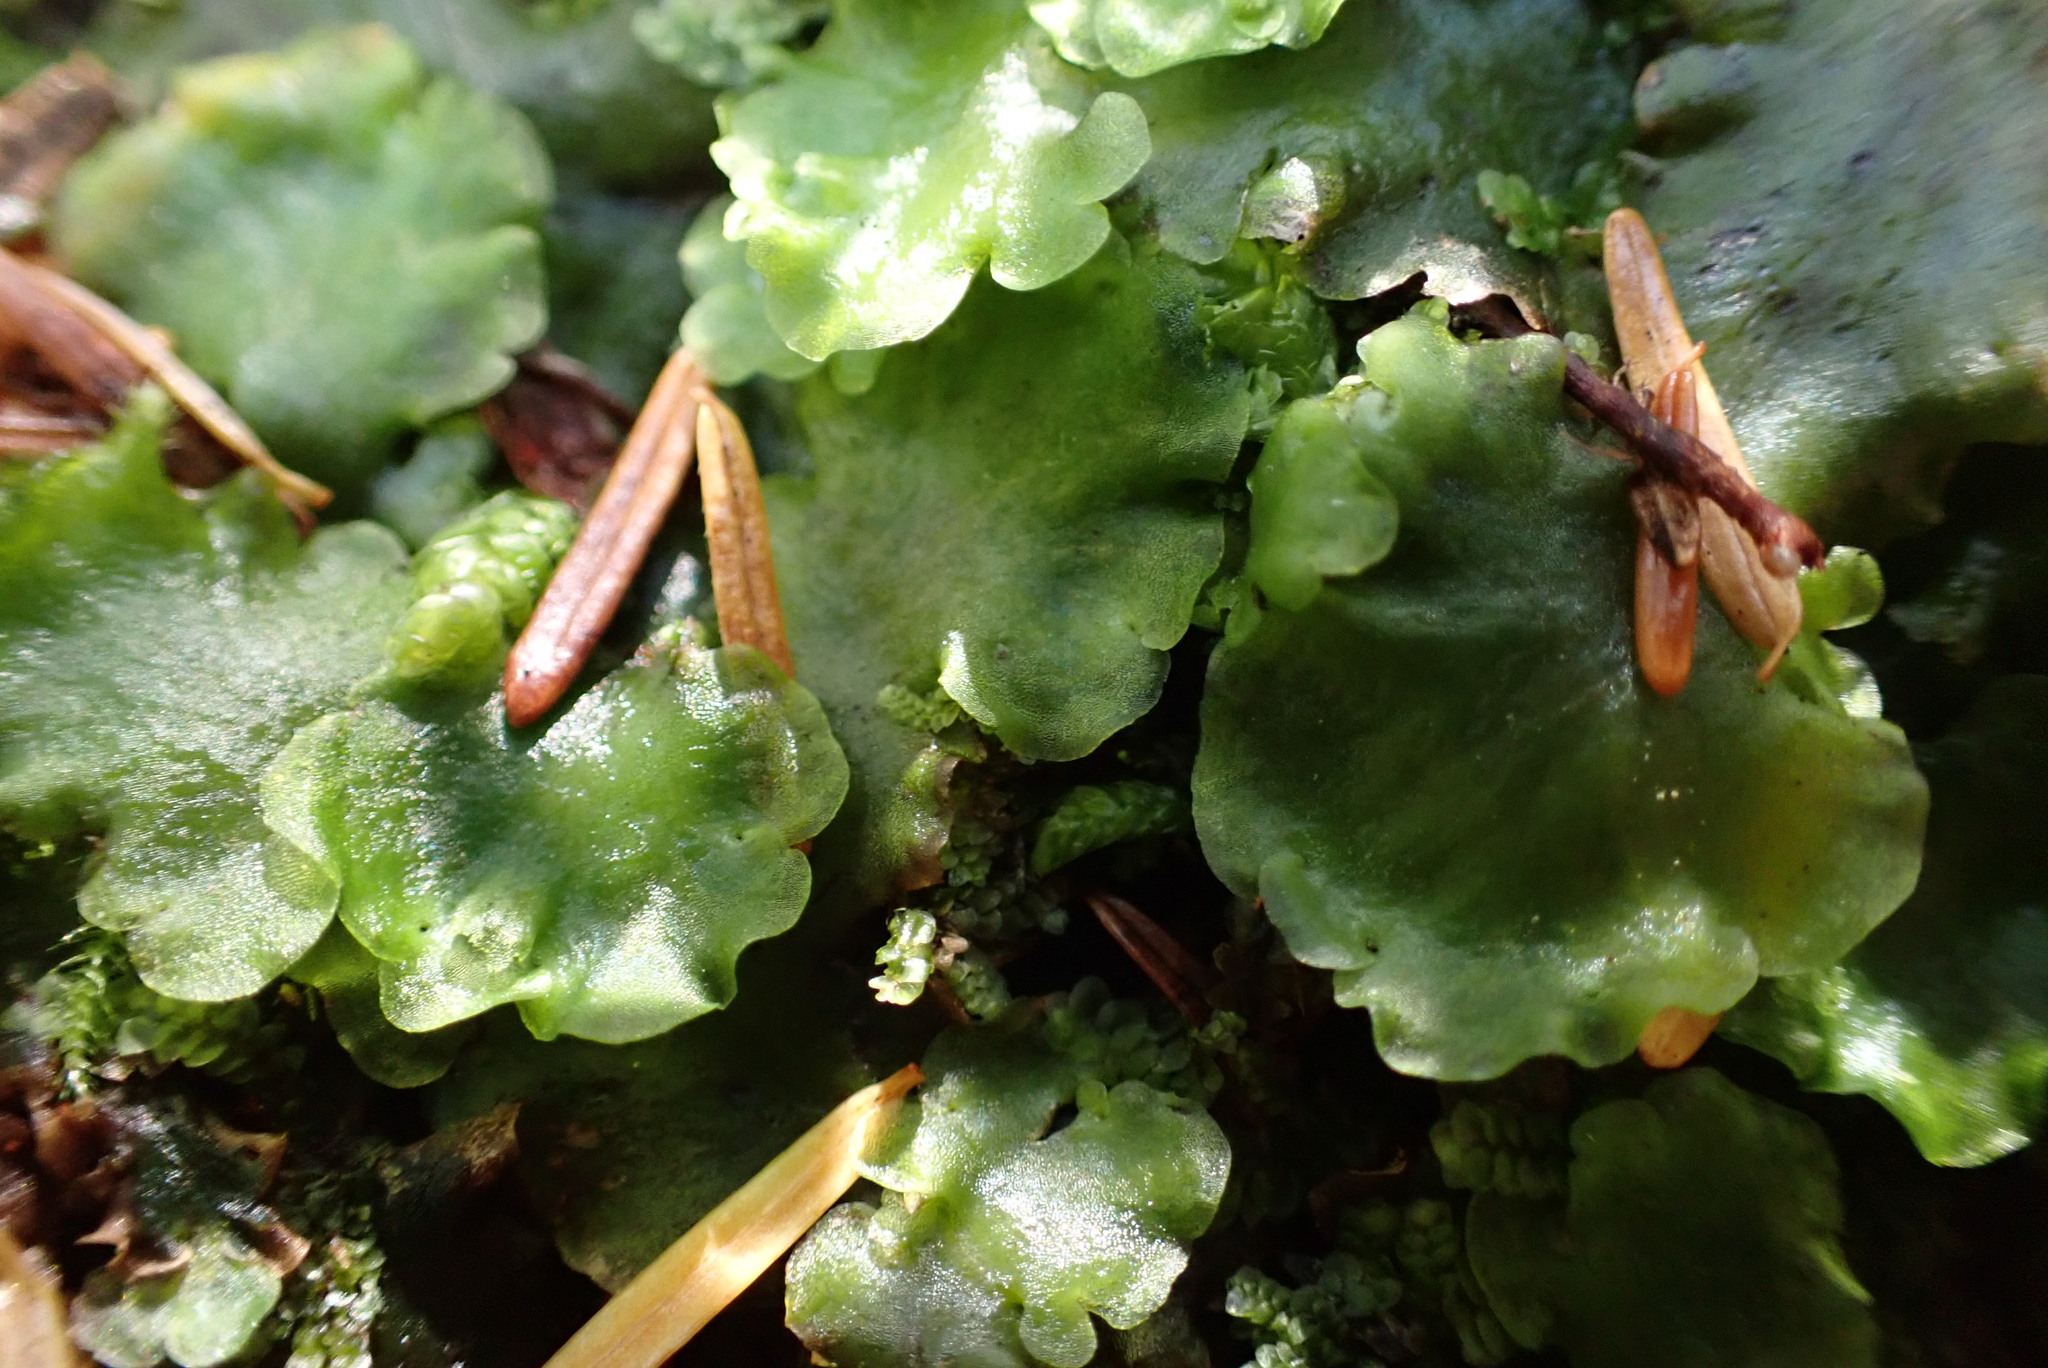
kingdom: Plantae
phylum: Marchantiophyta
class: Jungermanniopsida
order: Pelliales
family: Pelliaceae
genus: Pellia
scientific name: Pellia neesiana
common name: Nees  pellia
